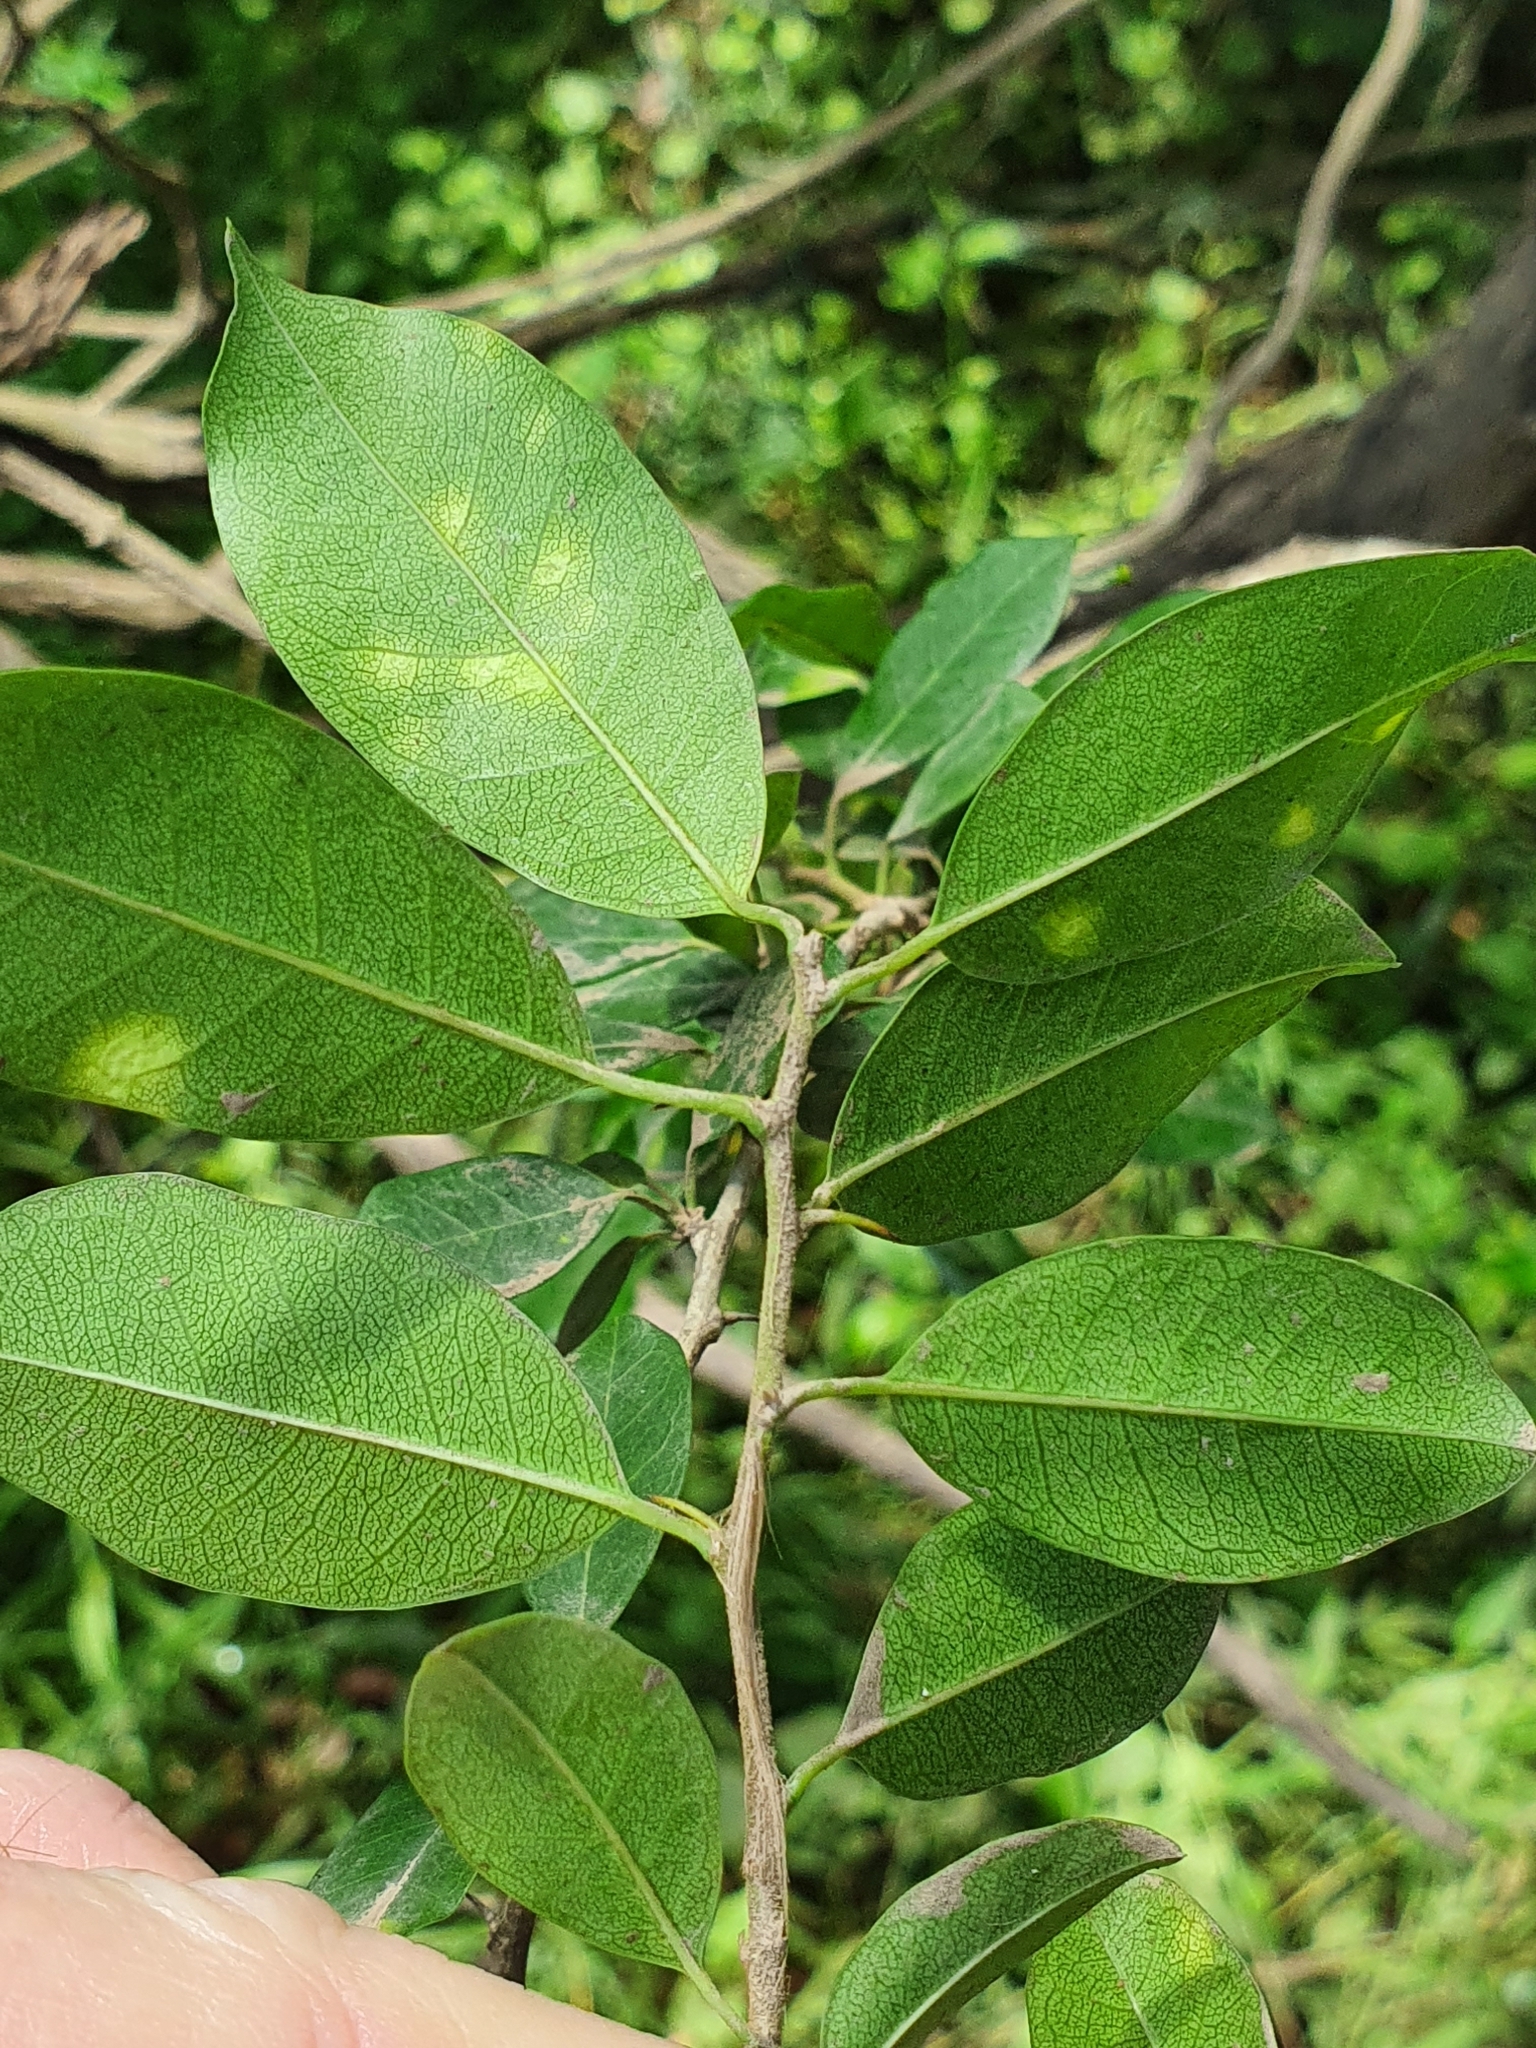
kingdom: Plantae
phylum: Tracheophyta
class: Magnoliopsida
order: Rosales
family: Moraceae
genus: Maclura
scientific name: Maclura cochinchinensis
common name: Cockspurthorn
